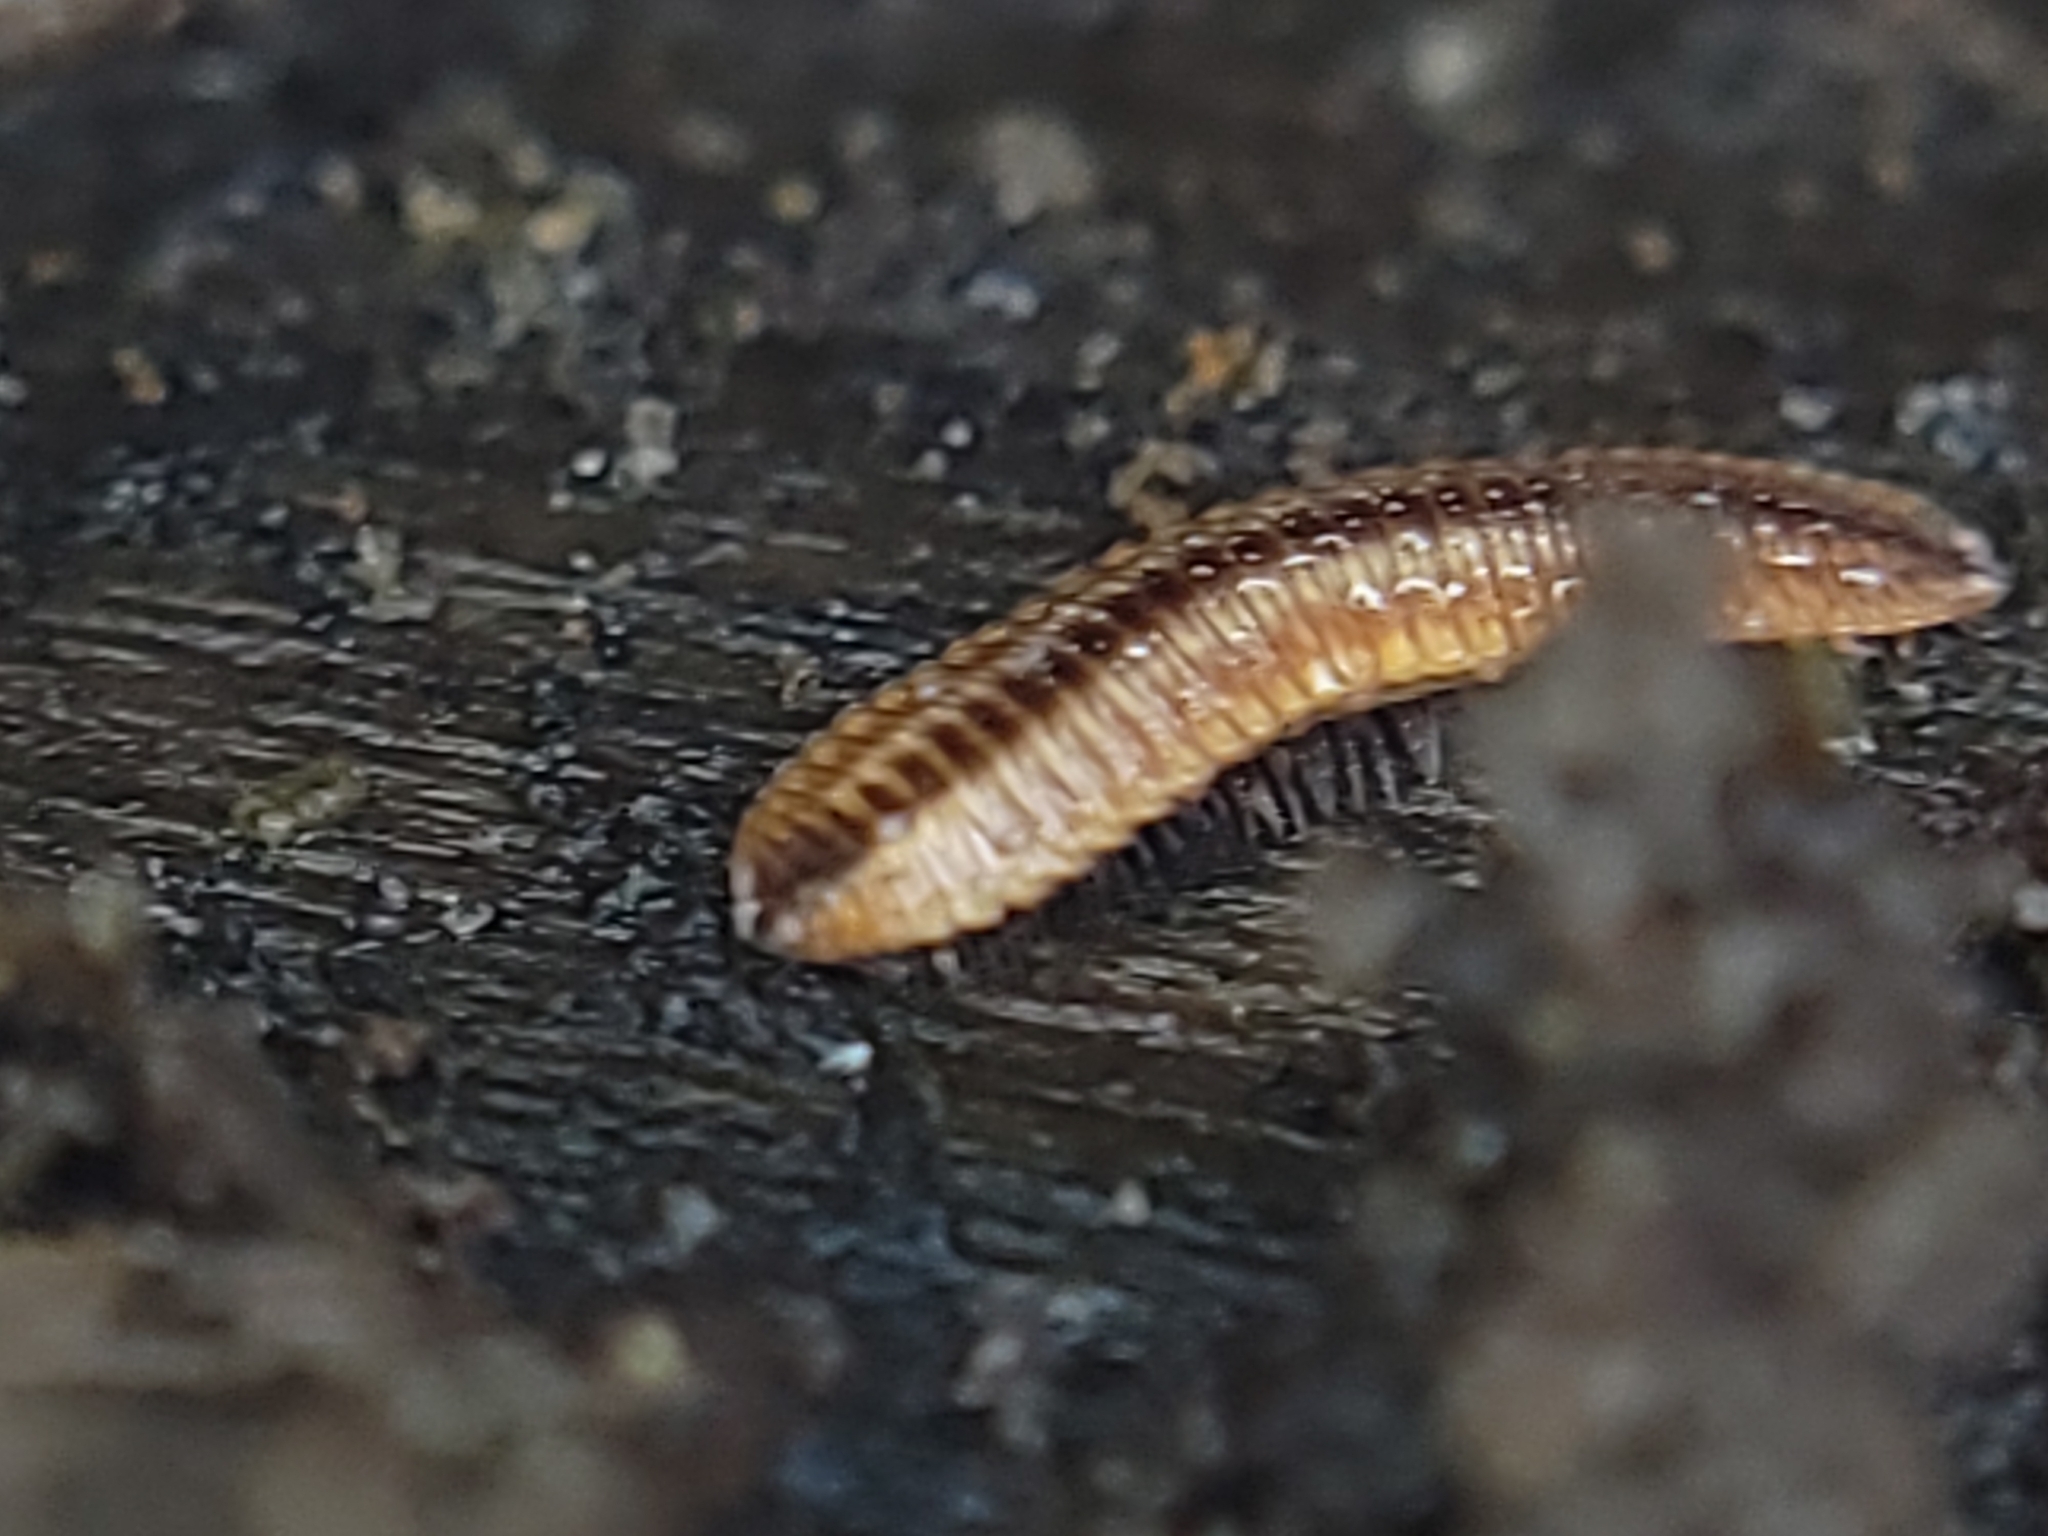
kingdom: Animalia
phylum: Arthropoda
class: Diplopoda
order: Polyzoniida
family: Hirudisomatidae
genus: Octoglena
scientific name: Octoglena bivirgatum
